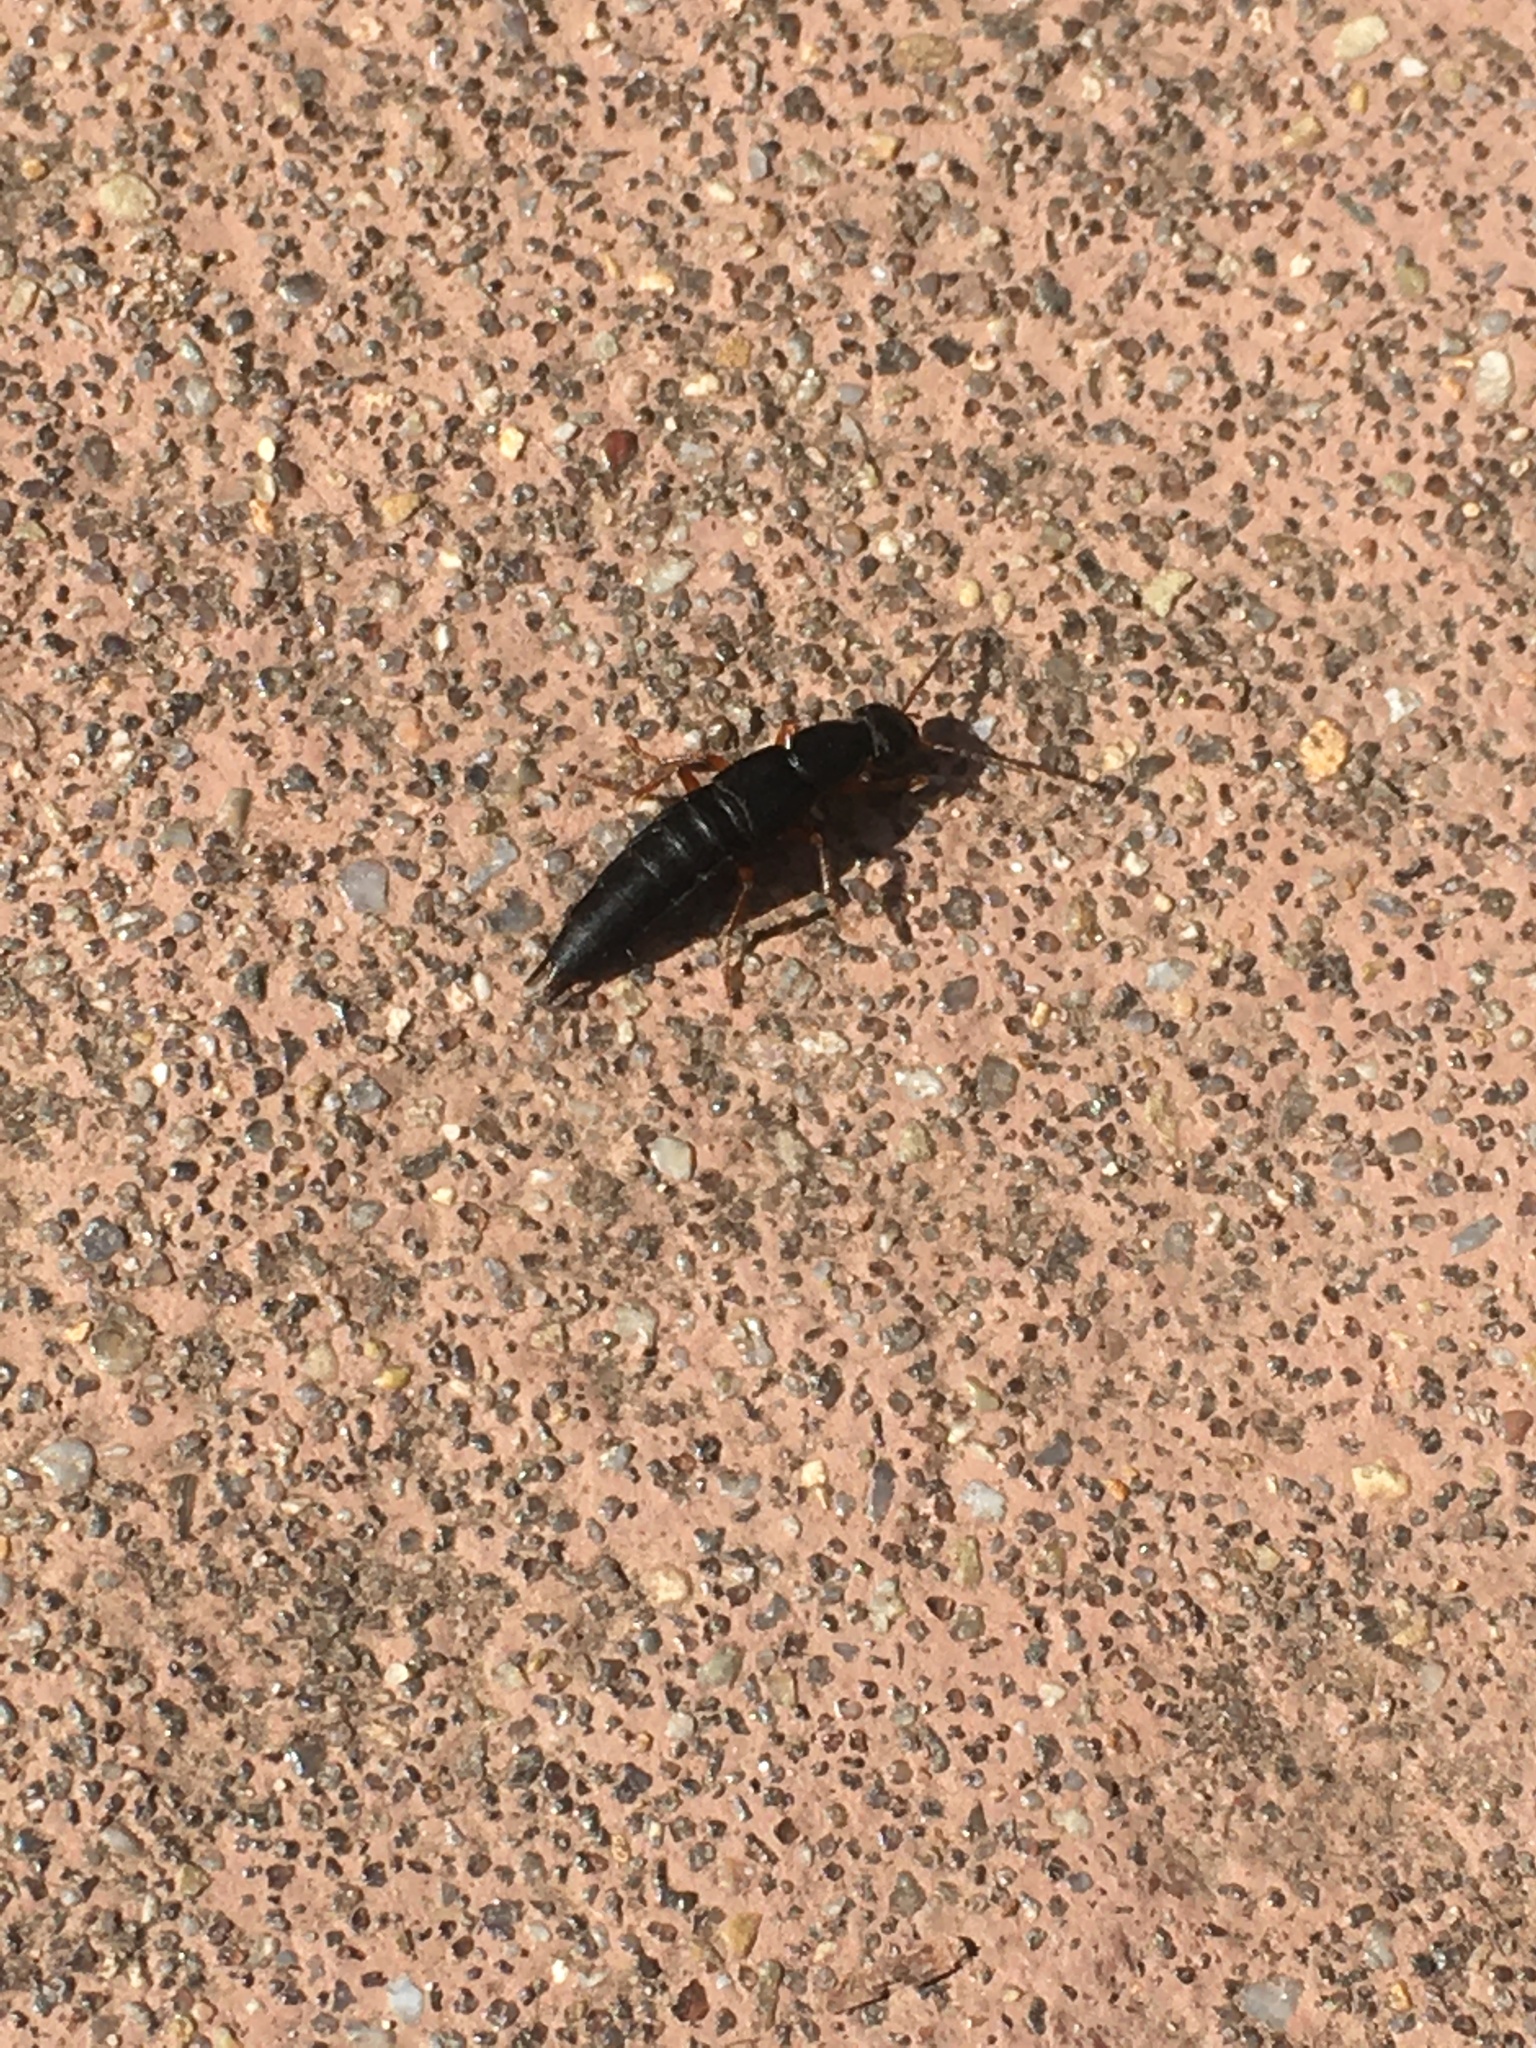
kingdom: Animalia
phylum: Arthropoda
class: Insecta
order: Coleoptera
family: Staphylinidae
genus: Tasgius
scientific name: Tasgius morsitans
